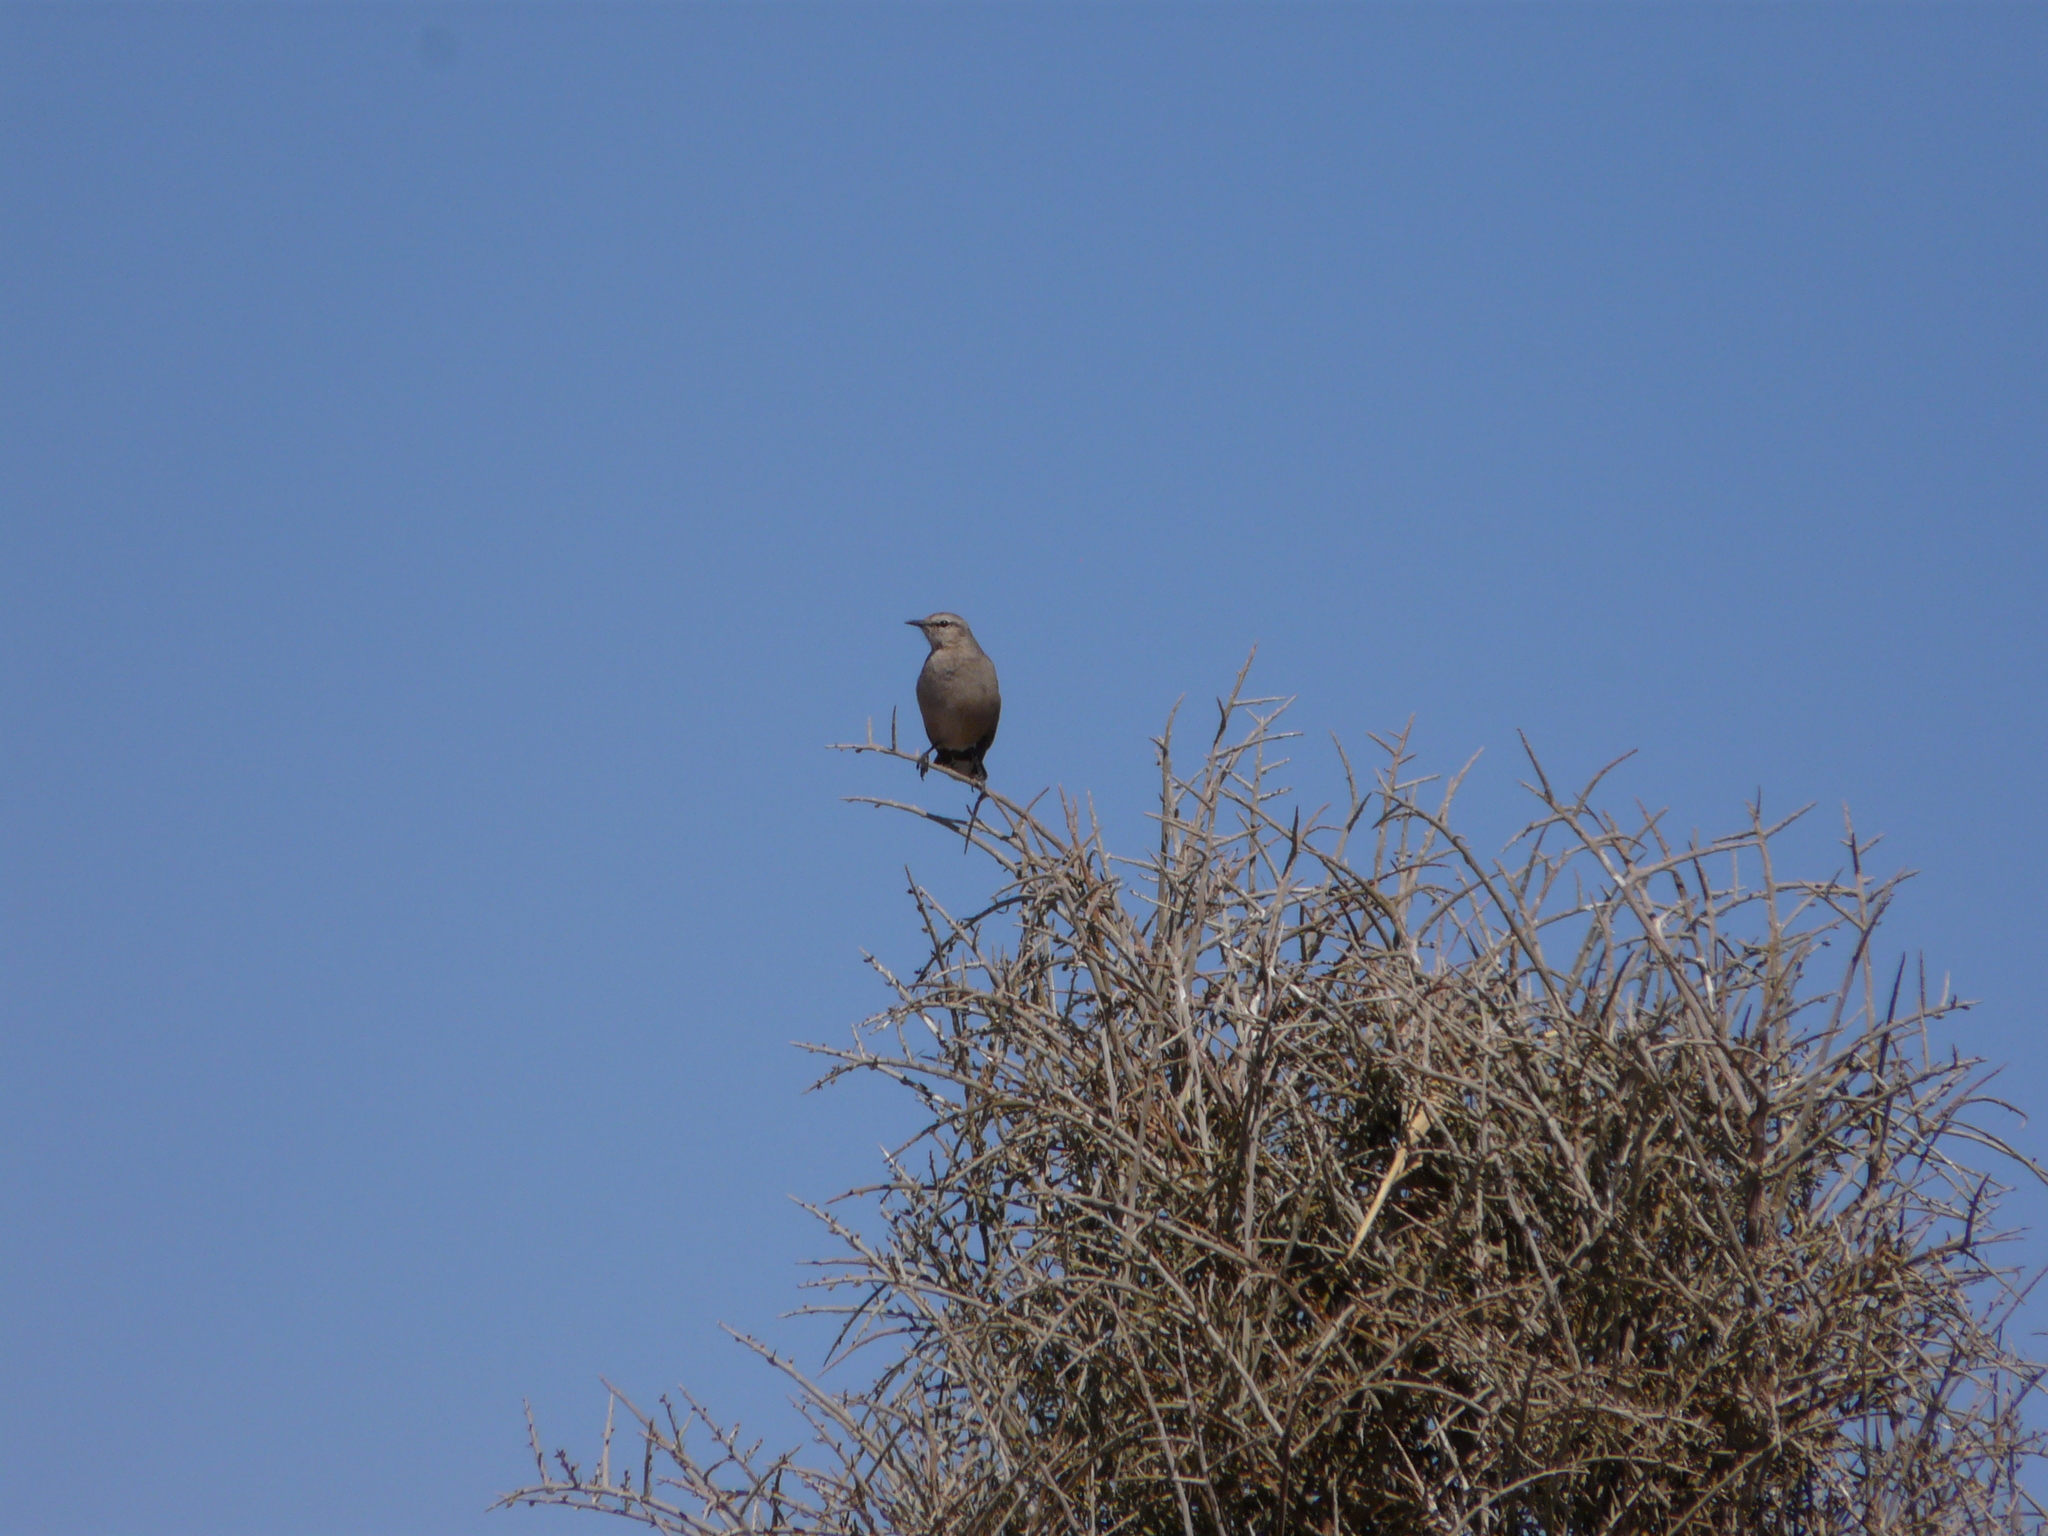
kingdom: Animalia
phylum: Chordata
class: Aves
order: Passeriformes
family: Mimidae
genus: Mimus
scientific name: Mimus patagonicus
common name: Patagonian mockingbird
